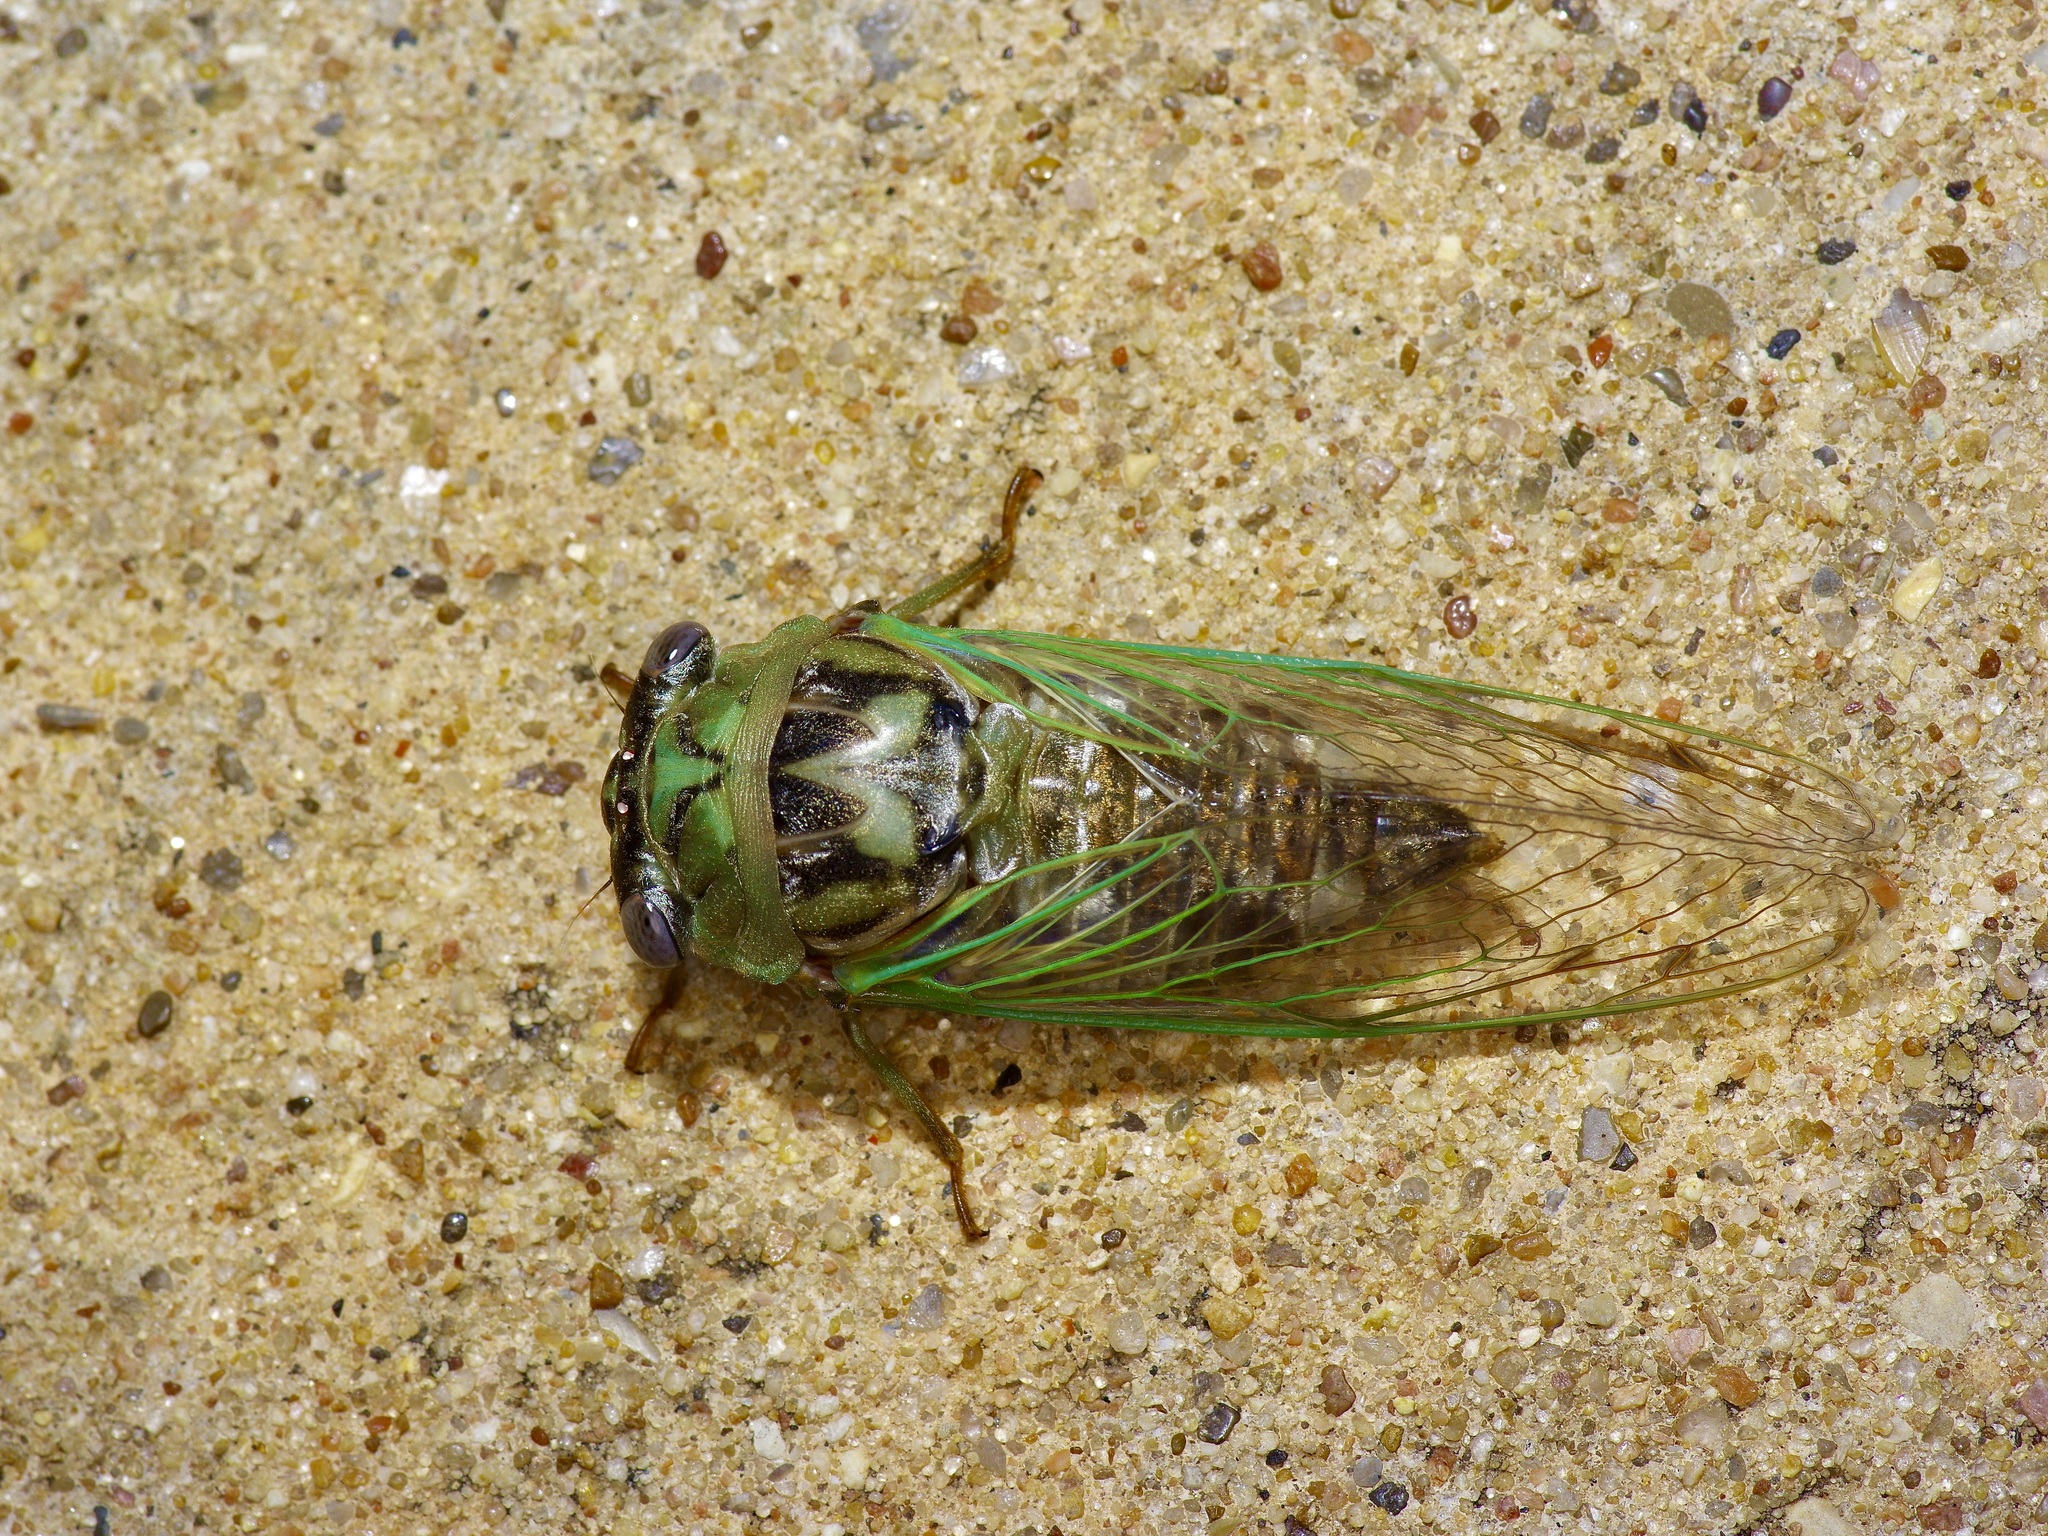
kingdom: Animalia
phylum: Arthropoda
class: Insecta
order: Hemiptera
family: Cicadidae
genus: Megatibicen
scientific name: Megatibicen resh
